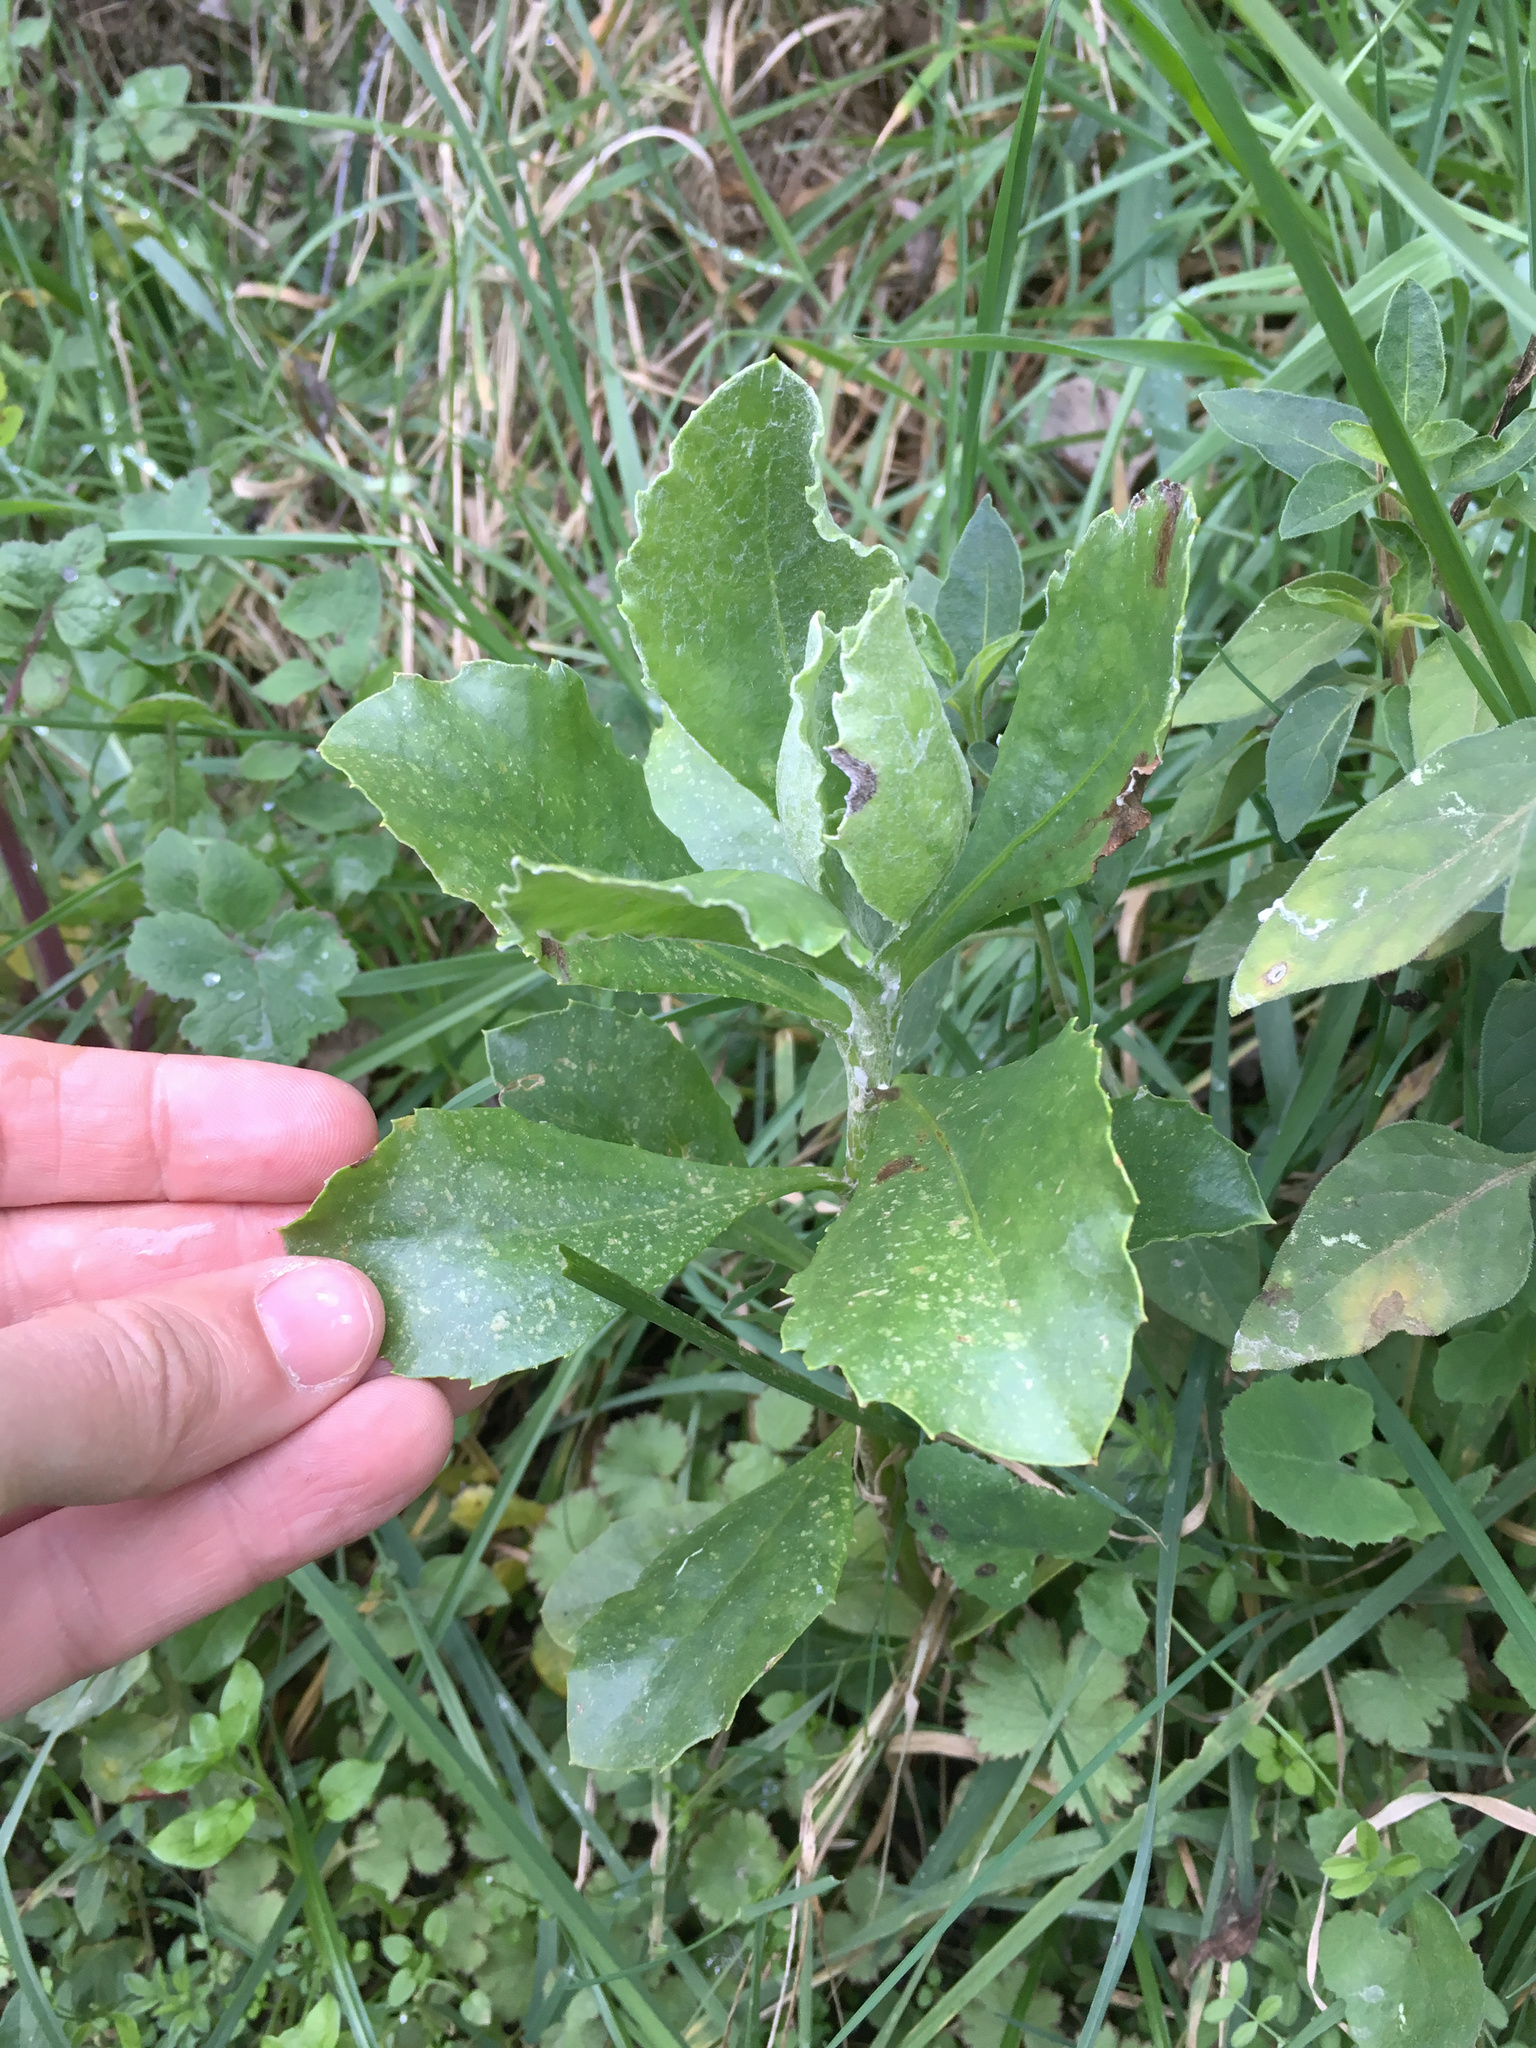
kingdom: Plantae
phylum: Tracheophyta
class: Magnoliopsida
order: Asterales
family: Asteraceae
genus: Osteospermum
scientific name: Osteospermum moniliferum
